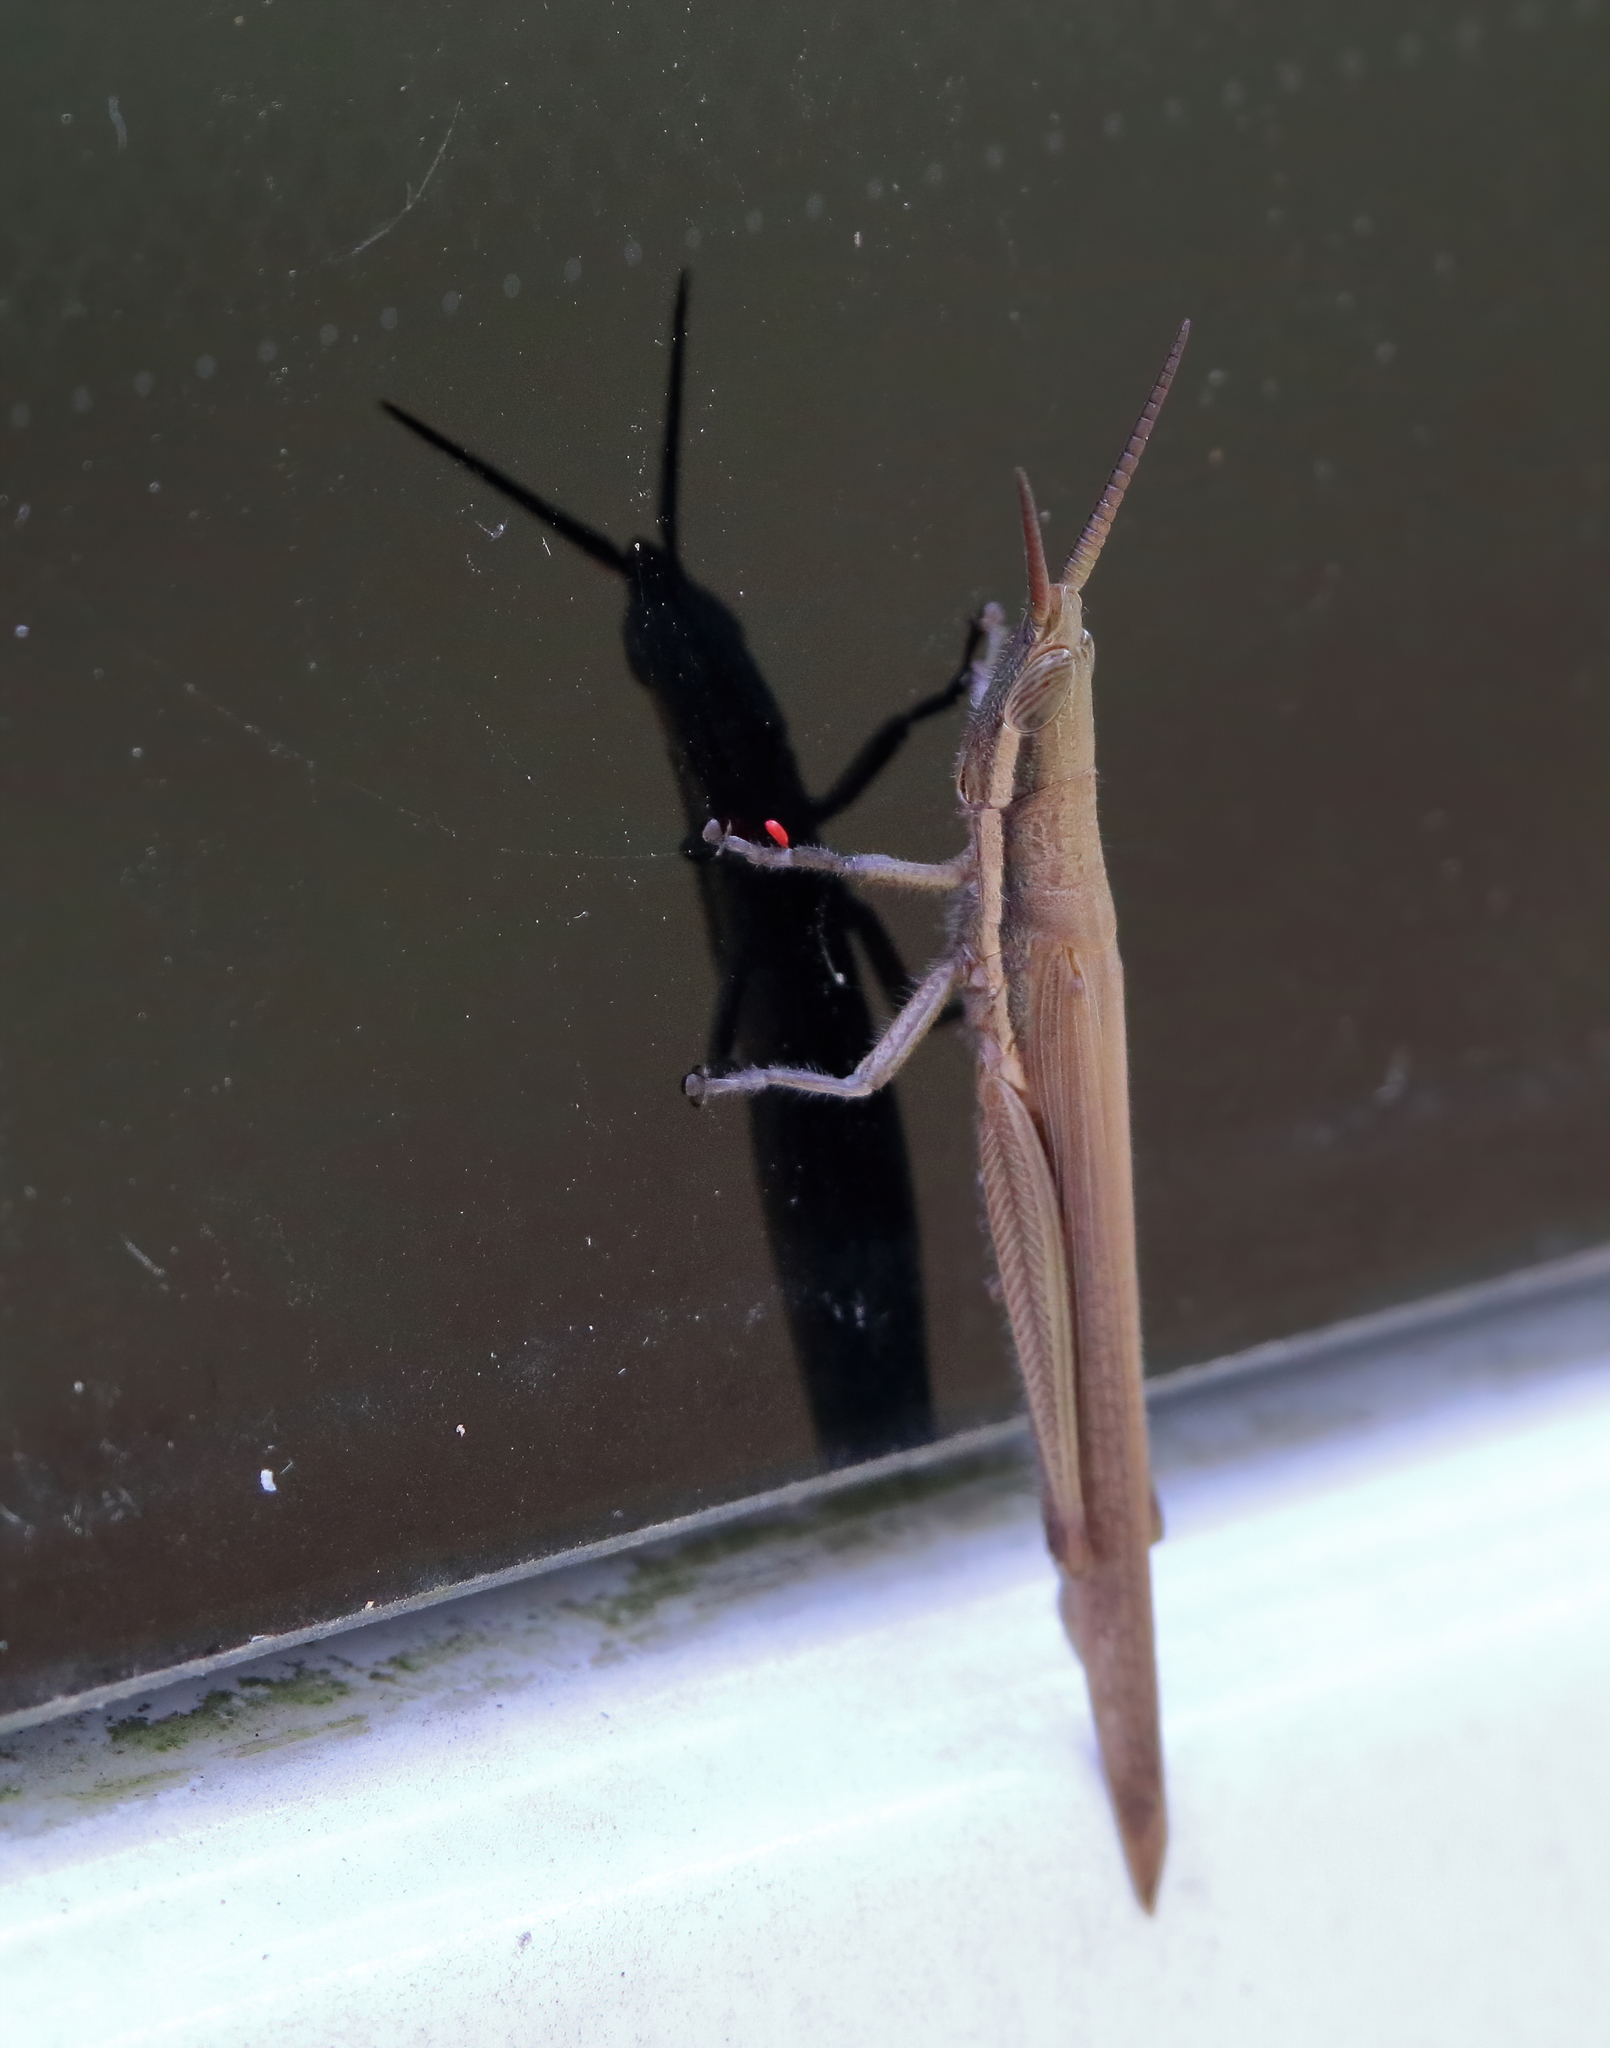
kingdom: Animalia
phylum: Arthropoda
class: Insecta
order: Orthoptera
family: Acrididae
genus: Leptysma
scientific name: Leptysma marginicollis
